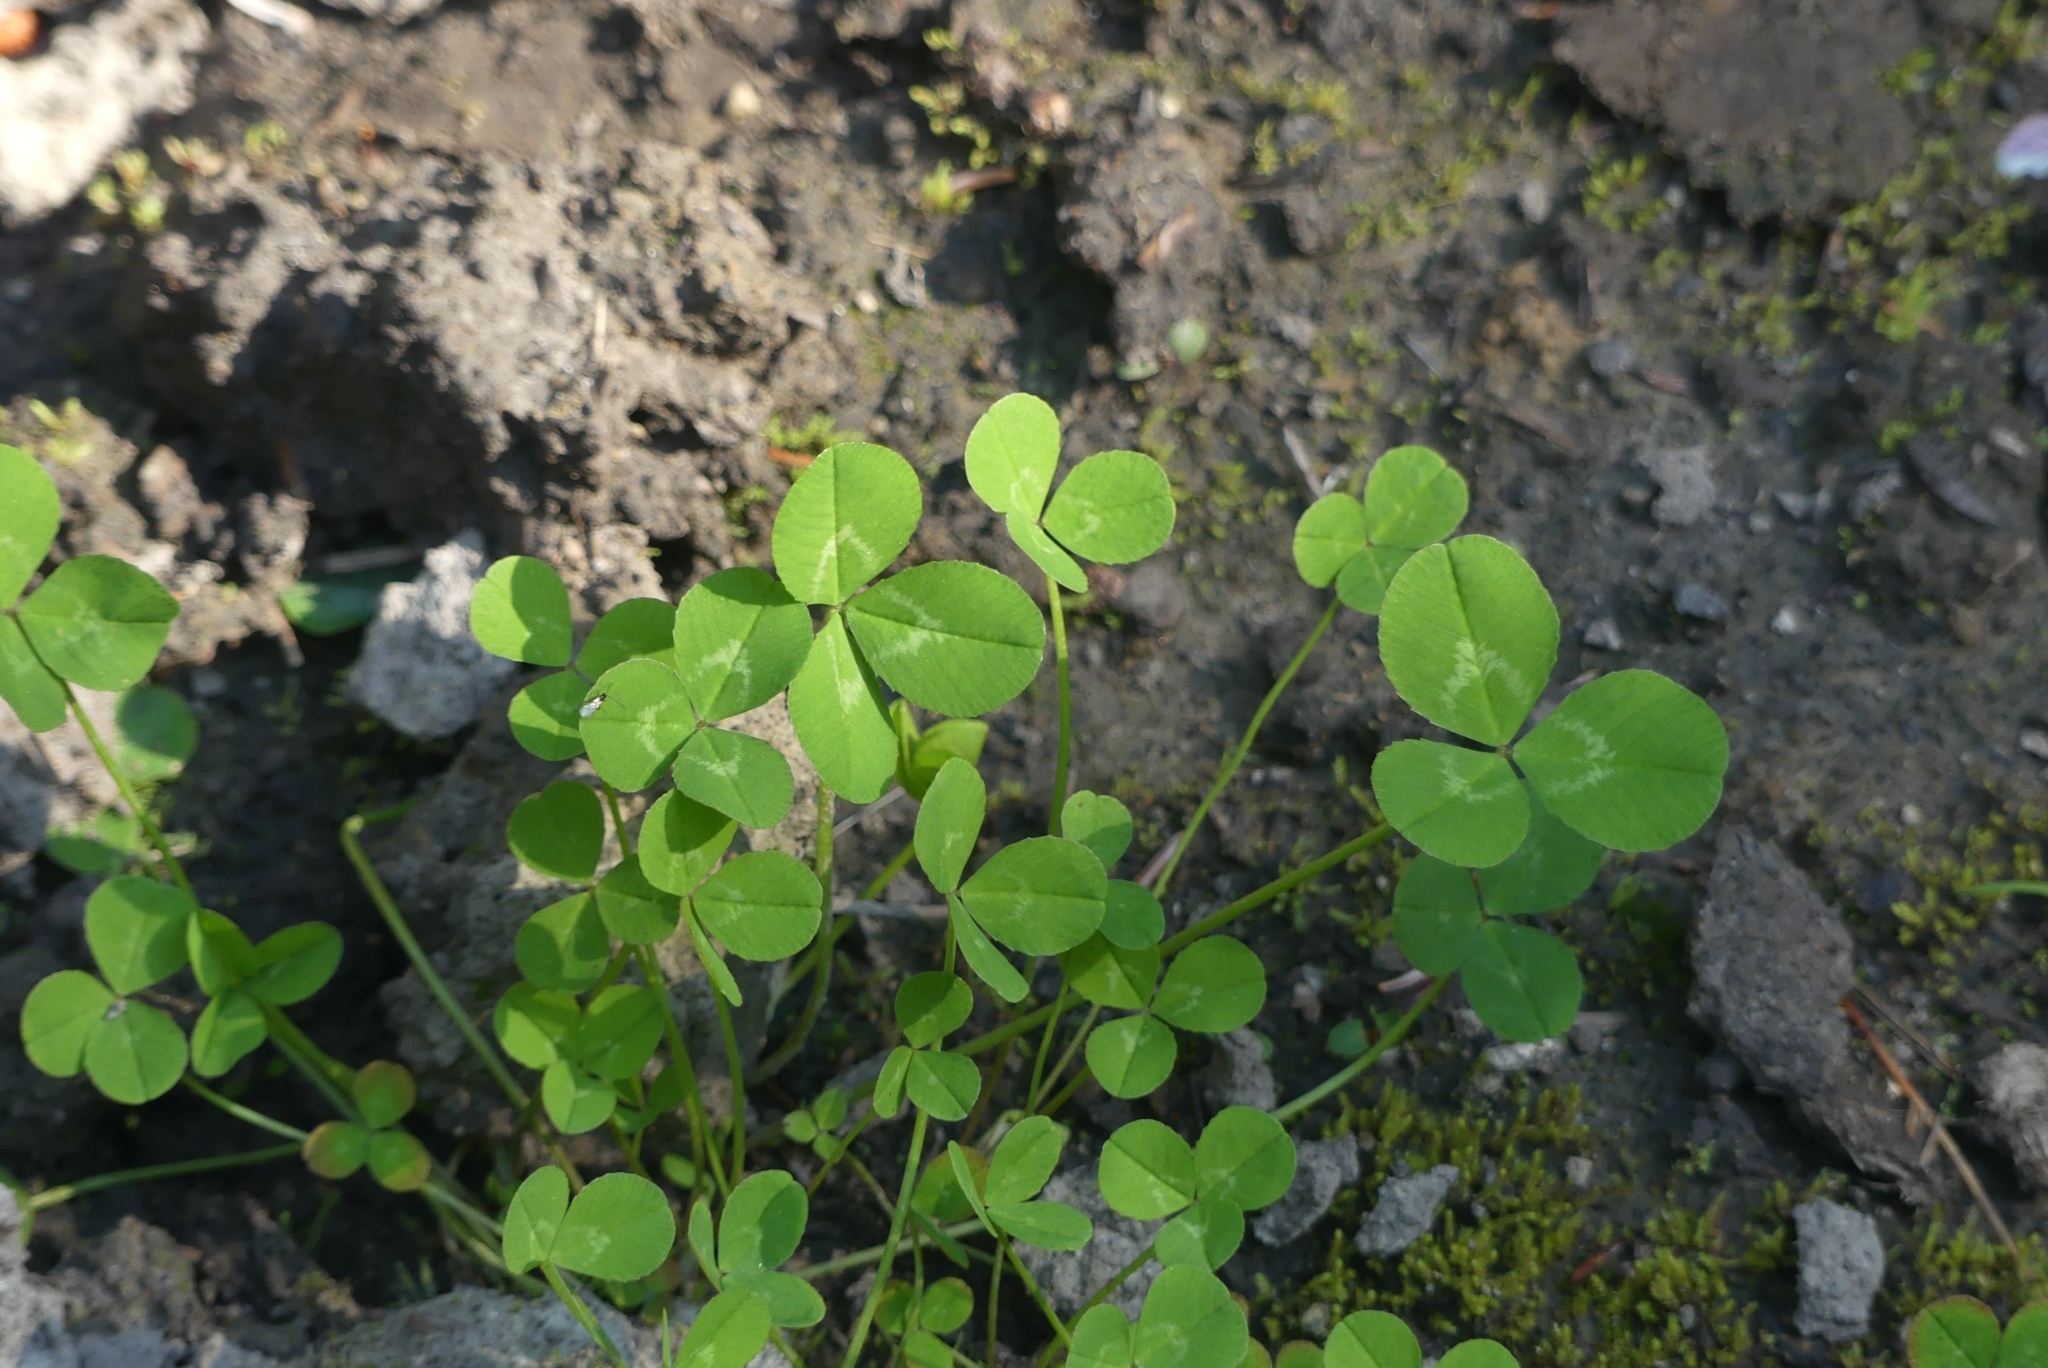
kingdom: Plantae
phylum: Tracheophyta
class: Magnoliopsida
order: Fabales
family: Fabaceae
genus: Trifolium
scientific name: Trifolium repens
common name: White clover
